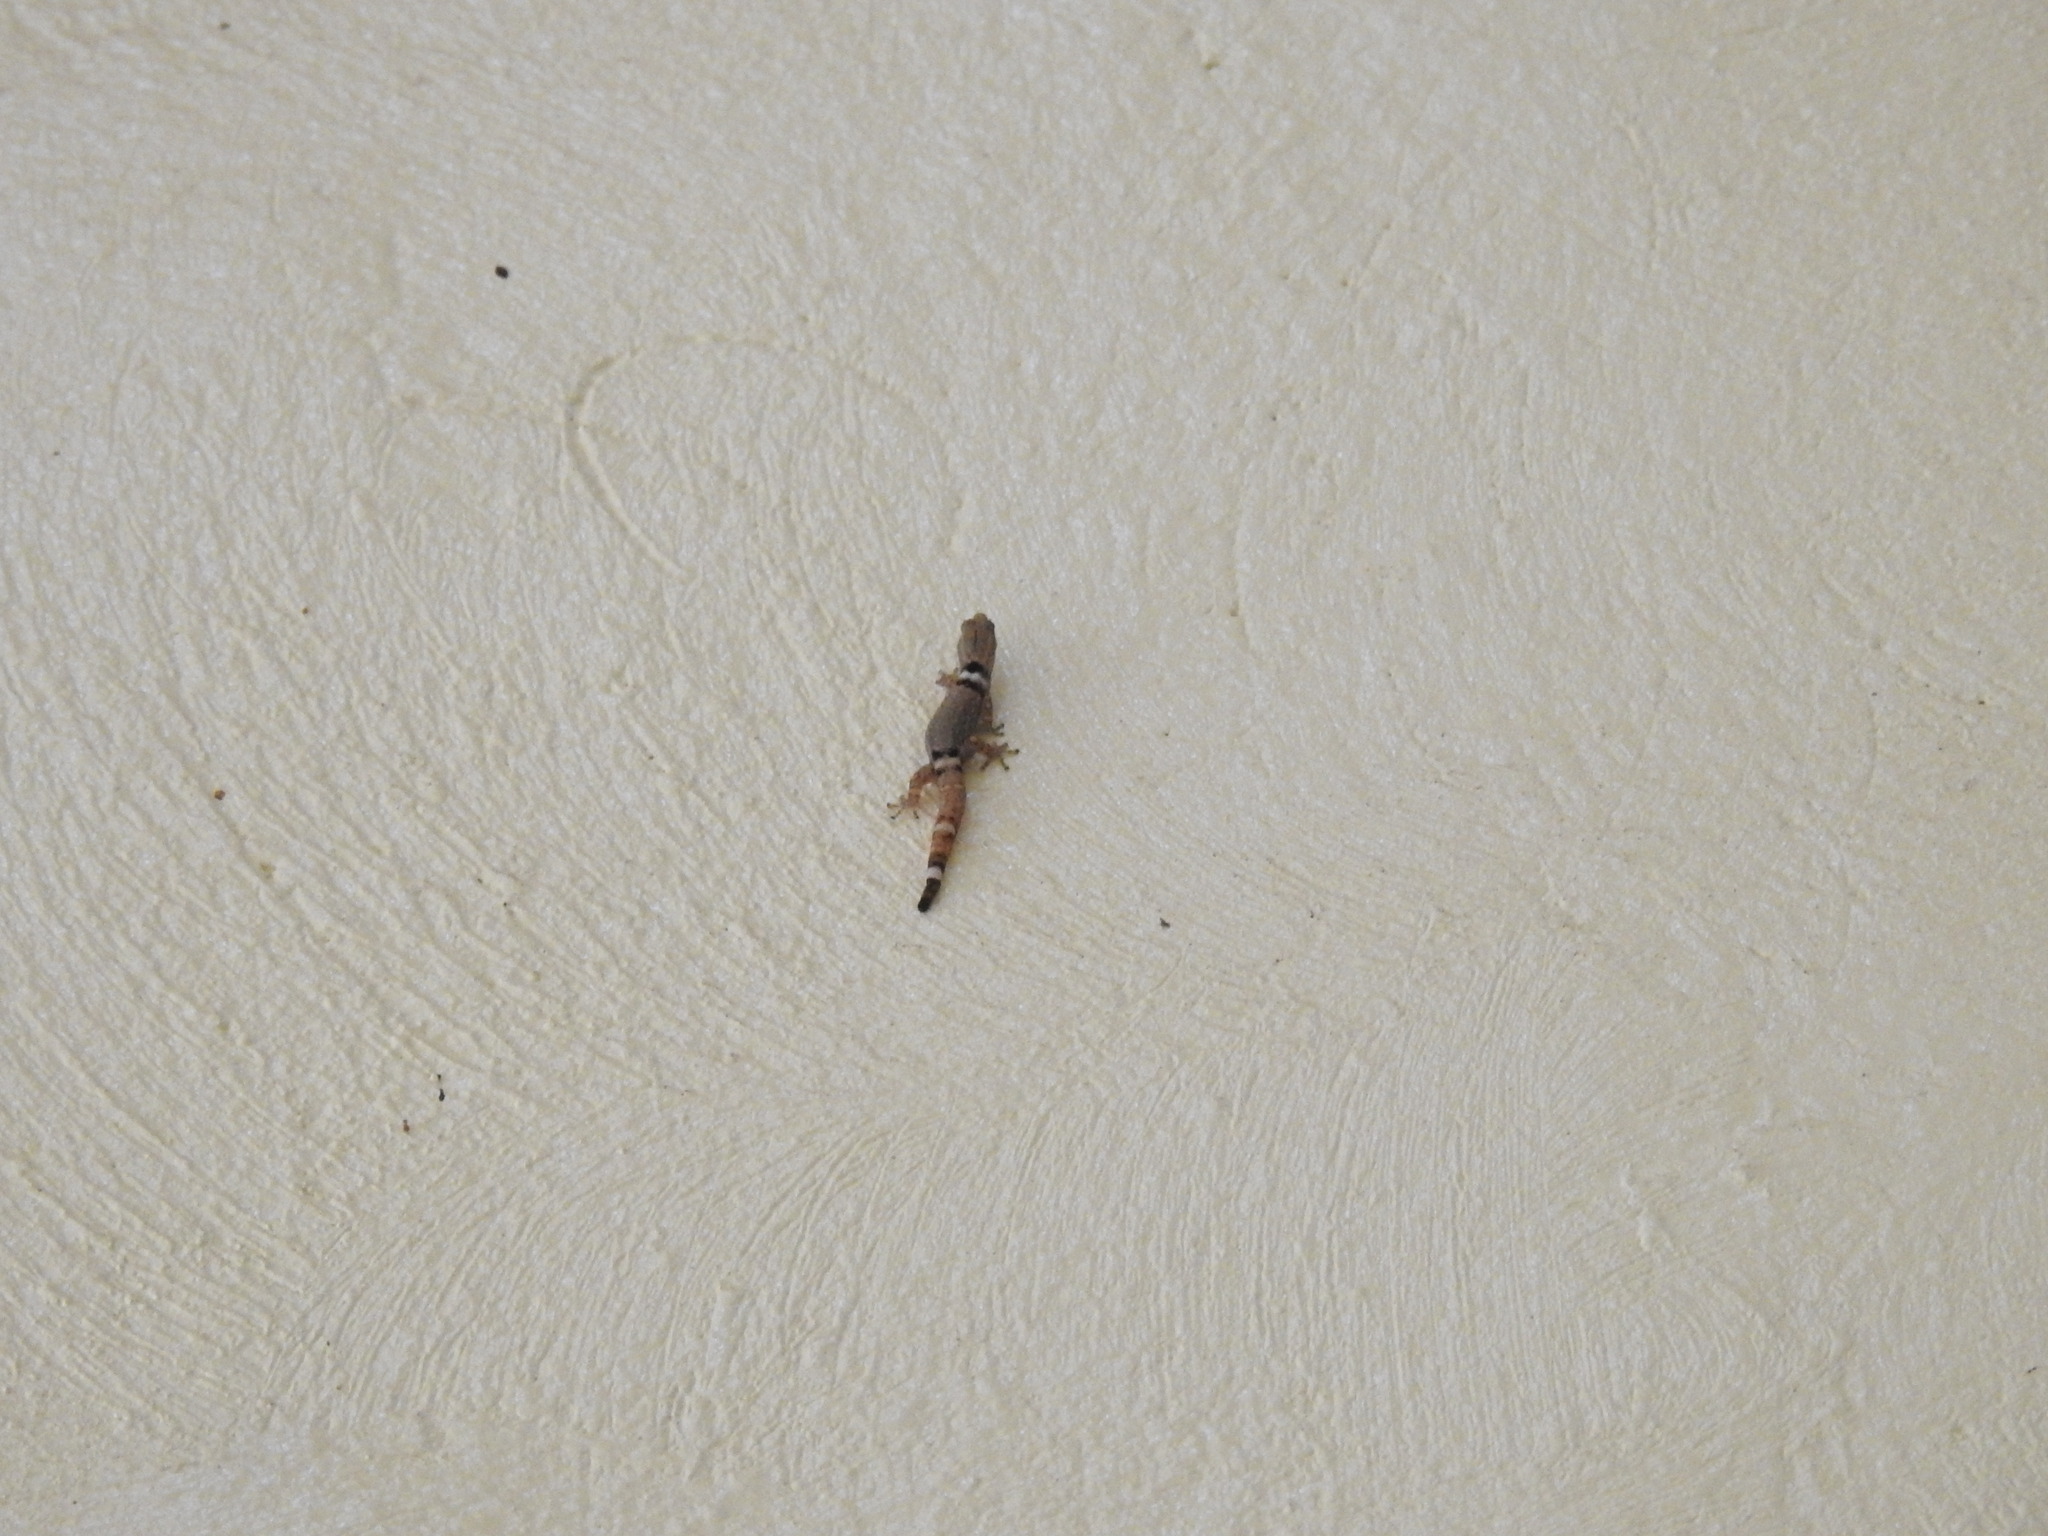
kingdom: Animalia
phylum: Chordata
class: Squamata
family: Sphaerodactylidae
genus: Sphaerodactylus
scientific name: Sphaerodactylus glaucus
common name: Central american collared geckolet
